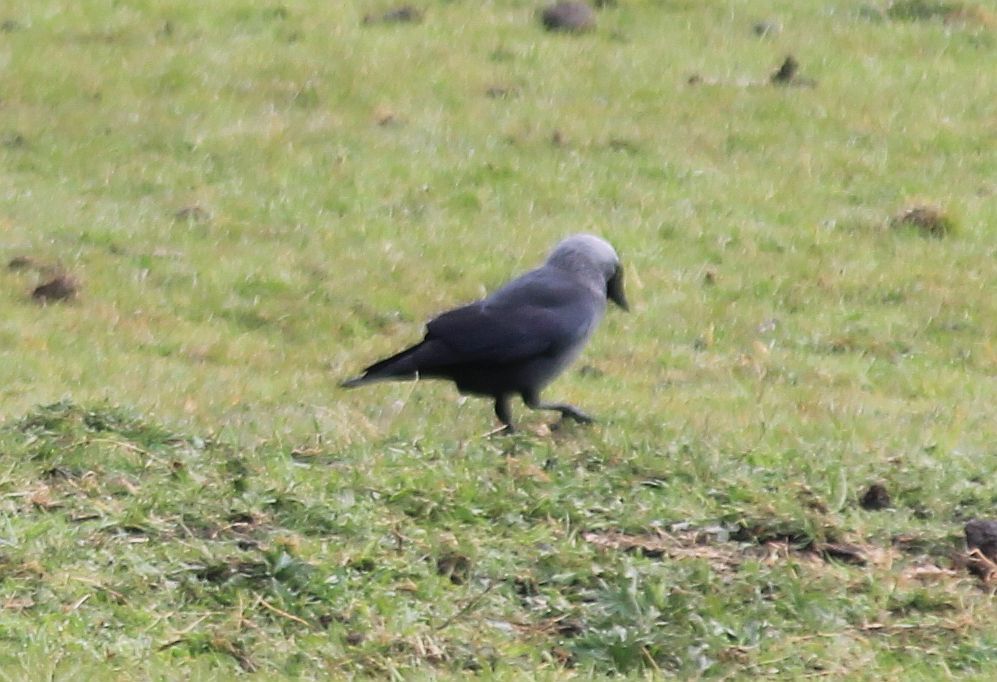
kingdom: Animalia
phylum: Chordata
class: Aves
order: Passeriformes
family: Corvidae
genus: Coloeus
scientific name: Coloeus monedula
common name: Western jackdaw
